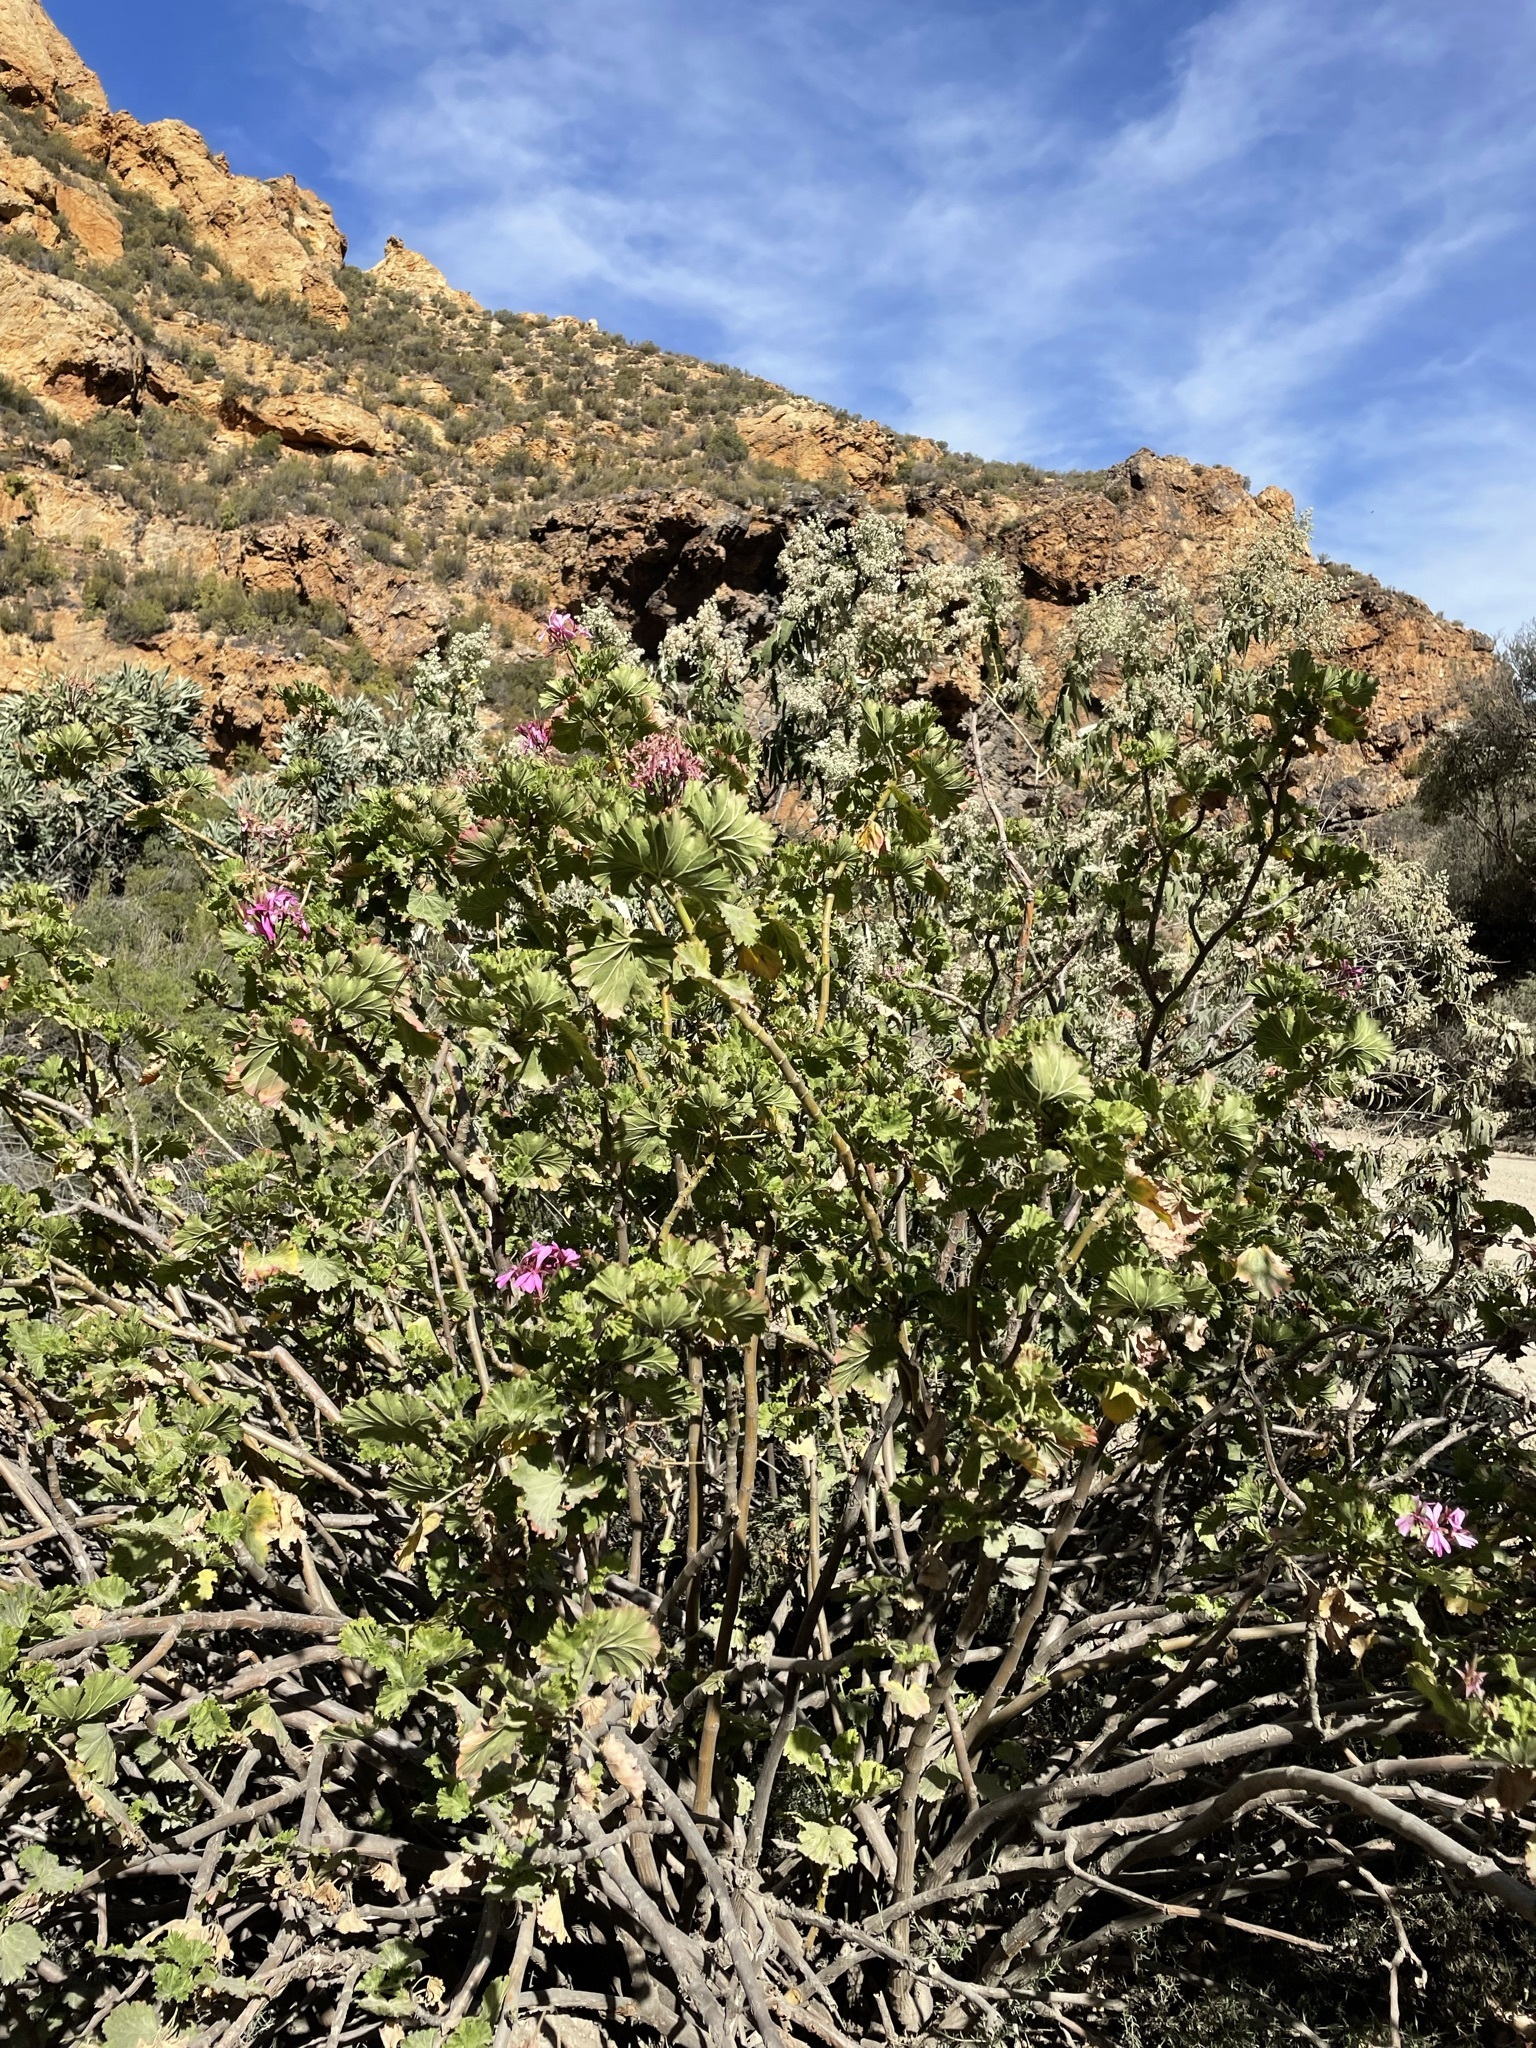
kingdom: Plantae
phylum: Tracheophyta
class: Magnoliopsida
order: Geraniales
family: Geraniaceae
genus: Pelargonium
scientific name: Pelargonium zonale
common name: Horseshoe geranium
